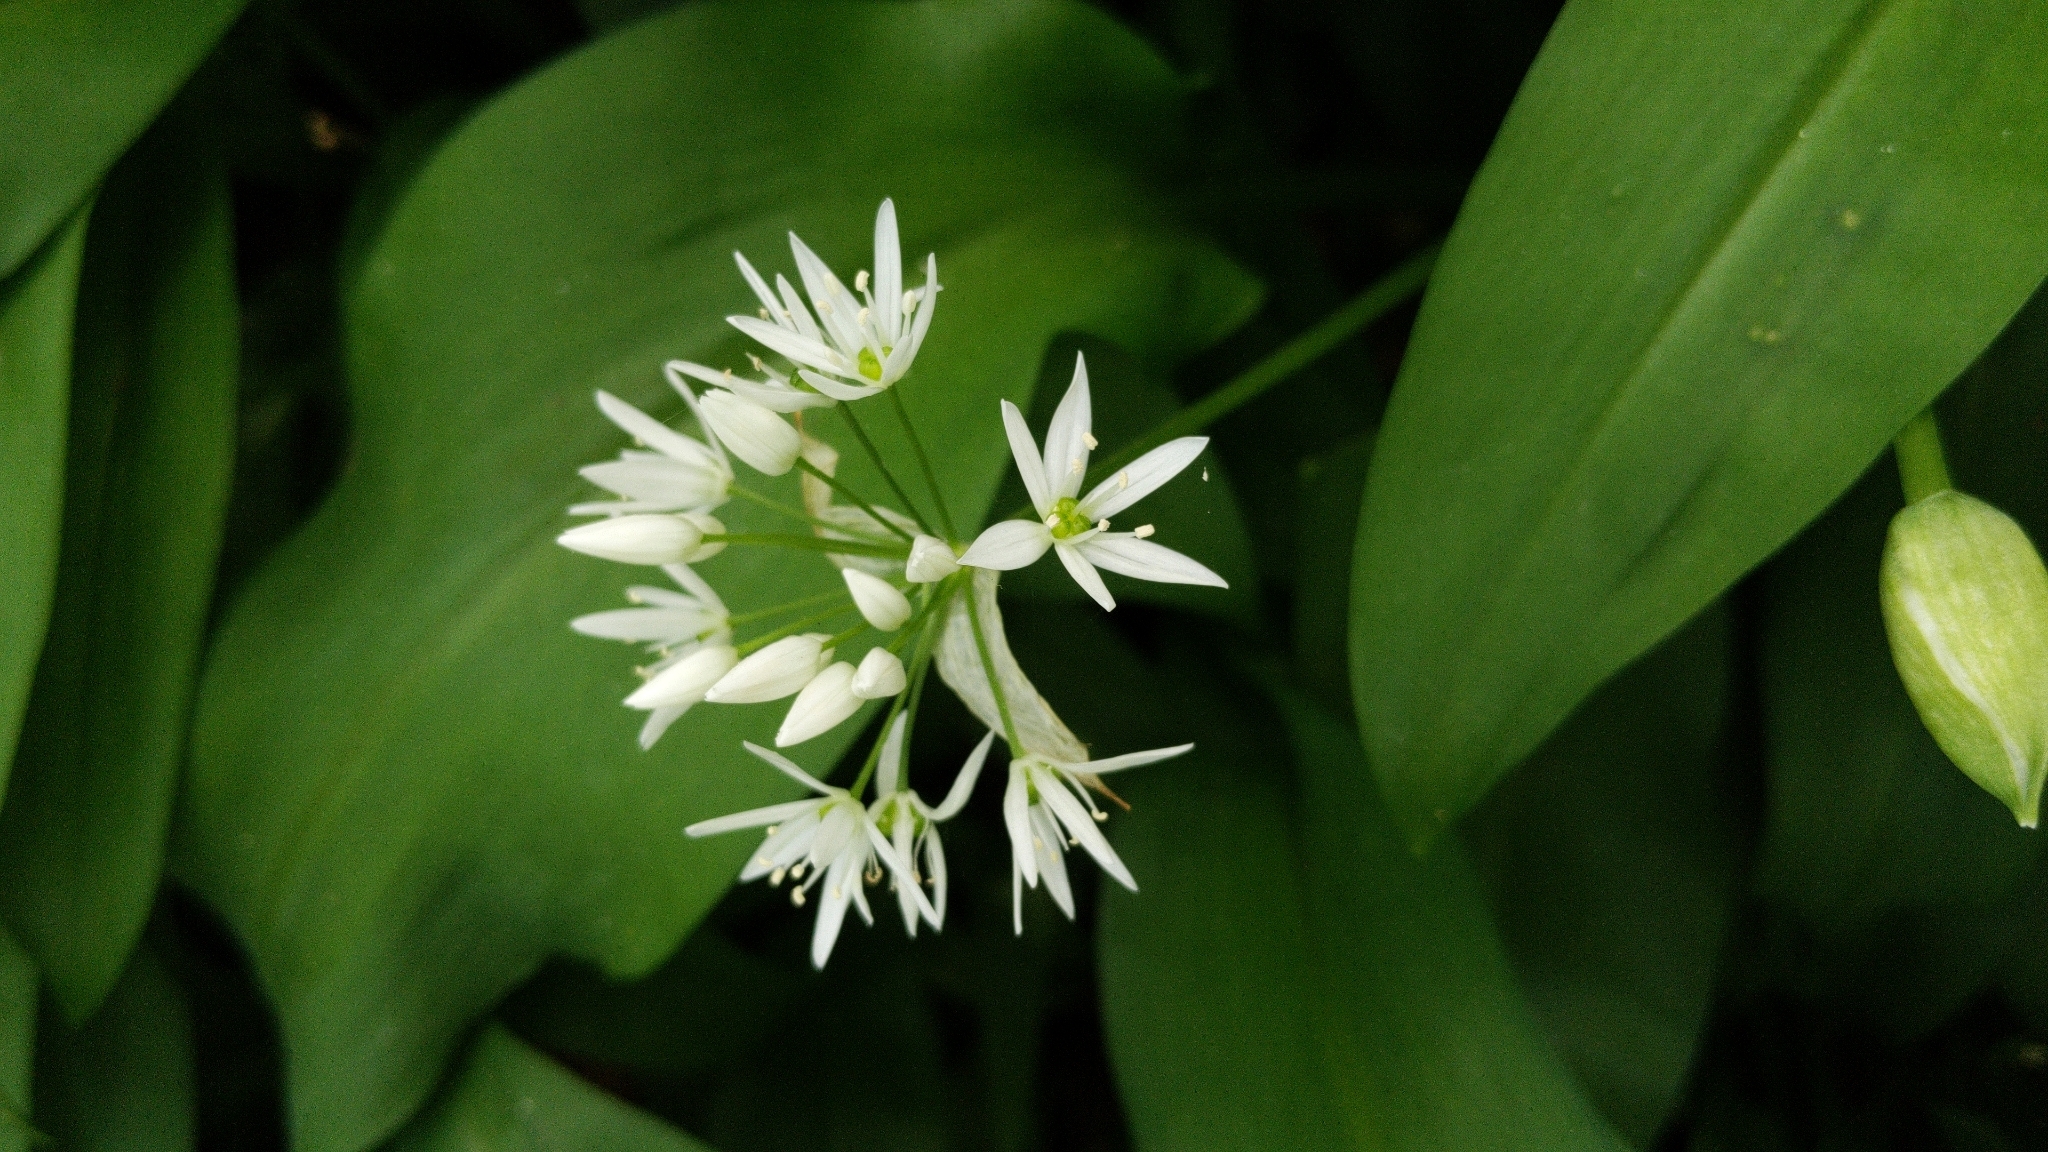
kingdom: Plantae
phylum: Tracheophyta
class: Liliopsida
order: Asparagales
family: Amaryllidaceae
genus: Allium
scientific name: Allium ursinum
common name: Ramsons
